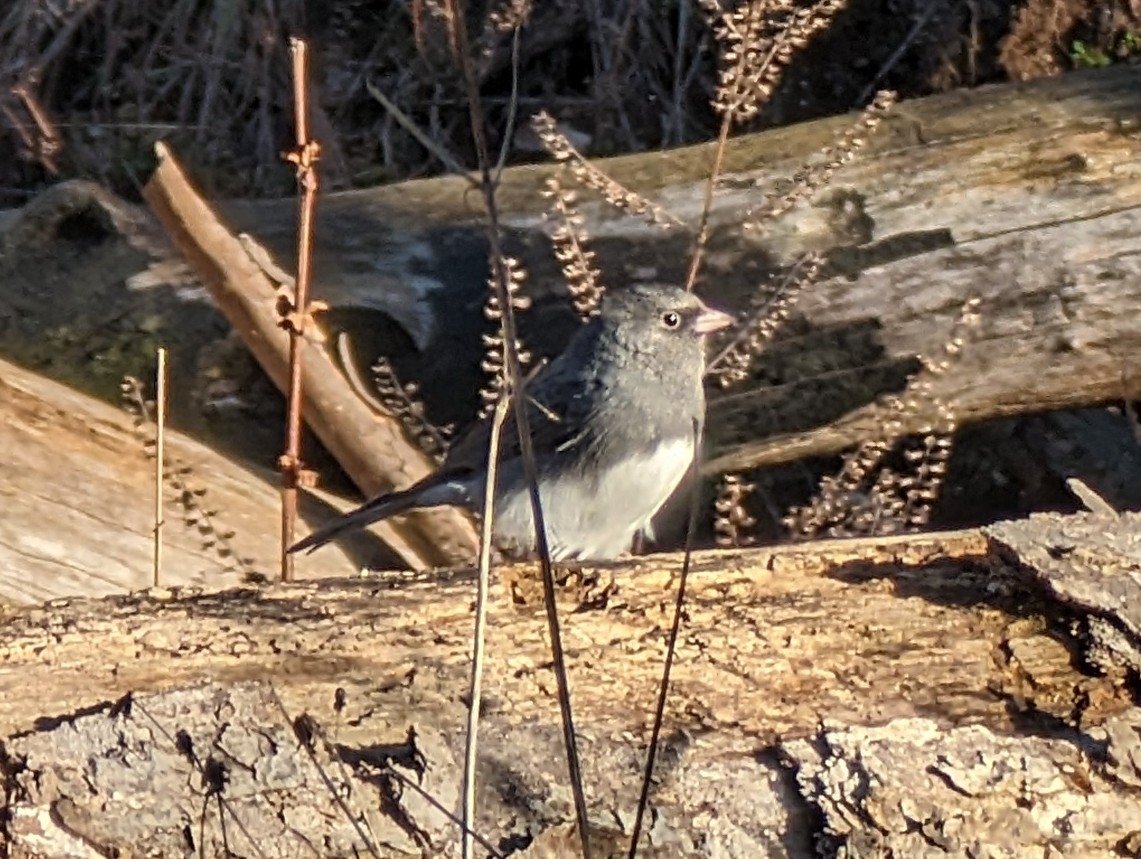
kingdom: Animalia
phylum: Chordata
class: Aves
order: Passeriformes
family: Passerellidae
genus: Junco
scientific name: Junco hyemalis
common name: Dark-eyed junco
